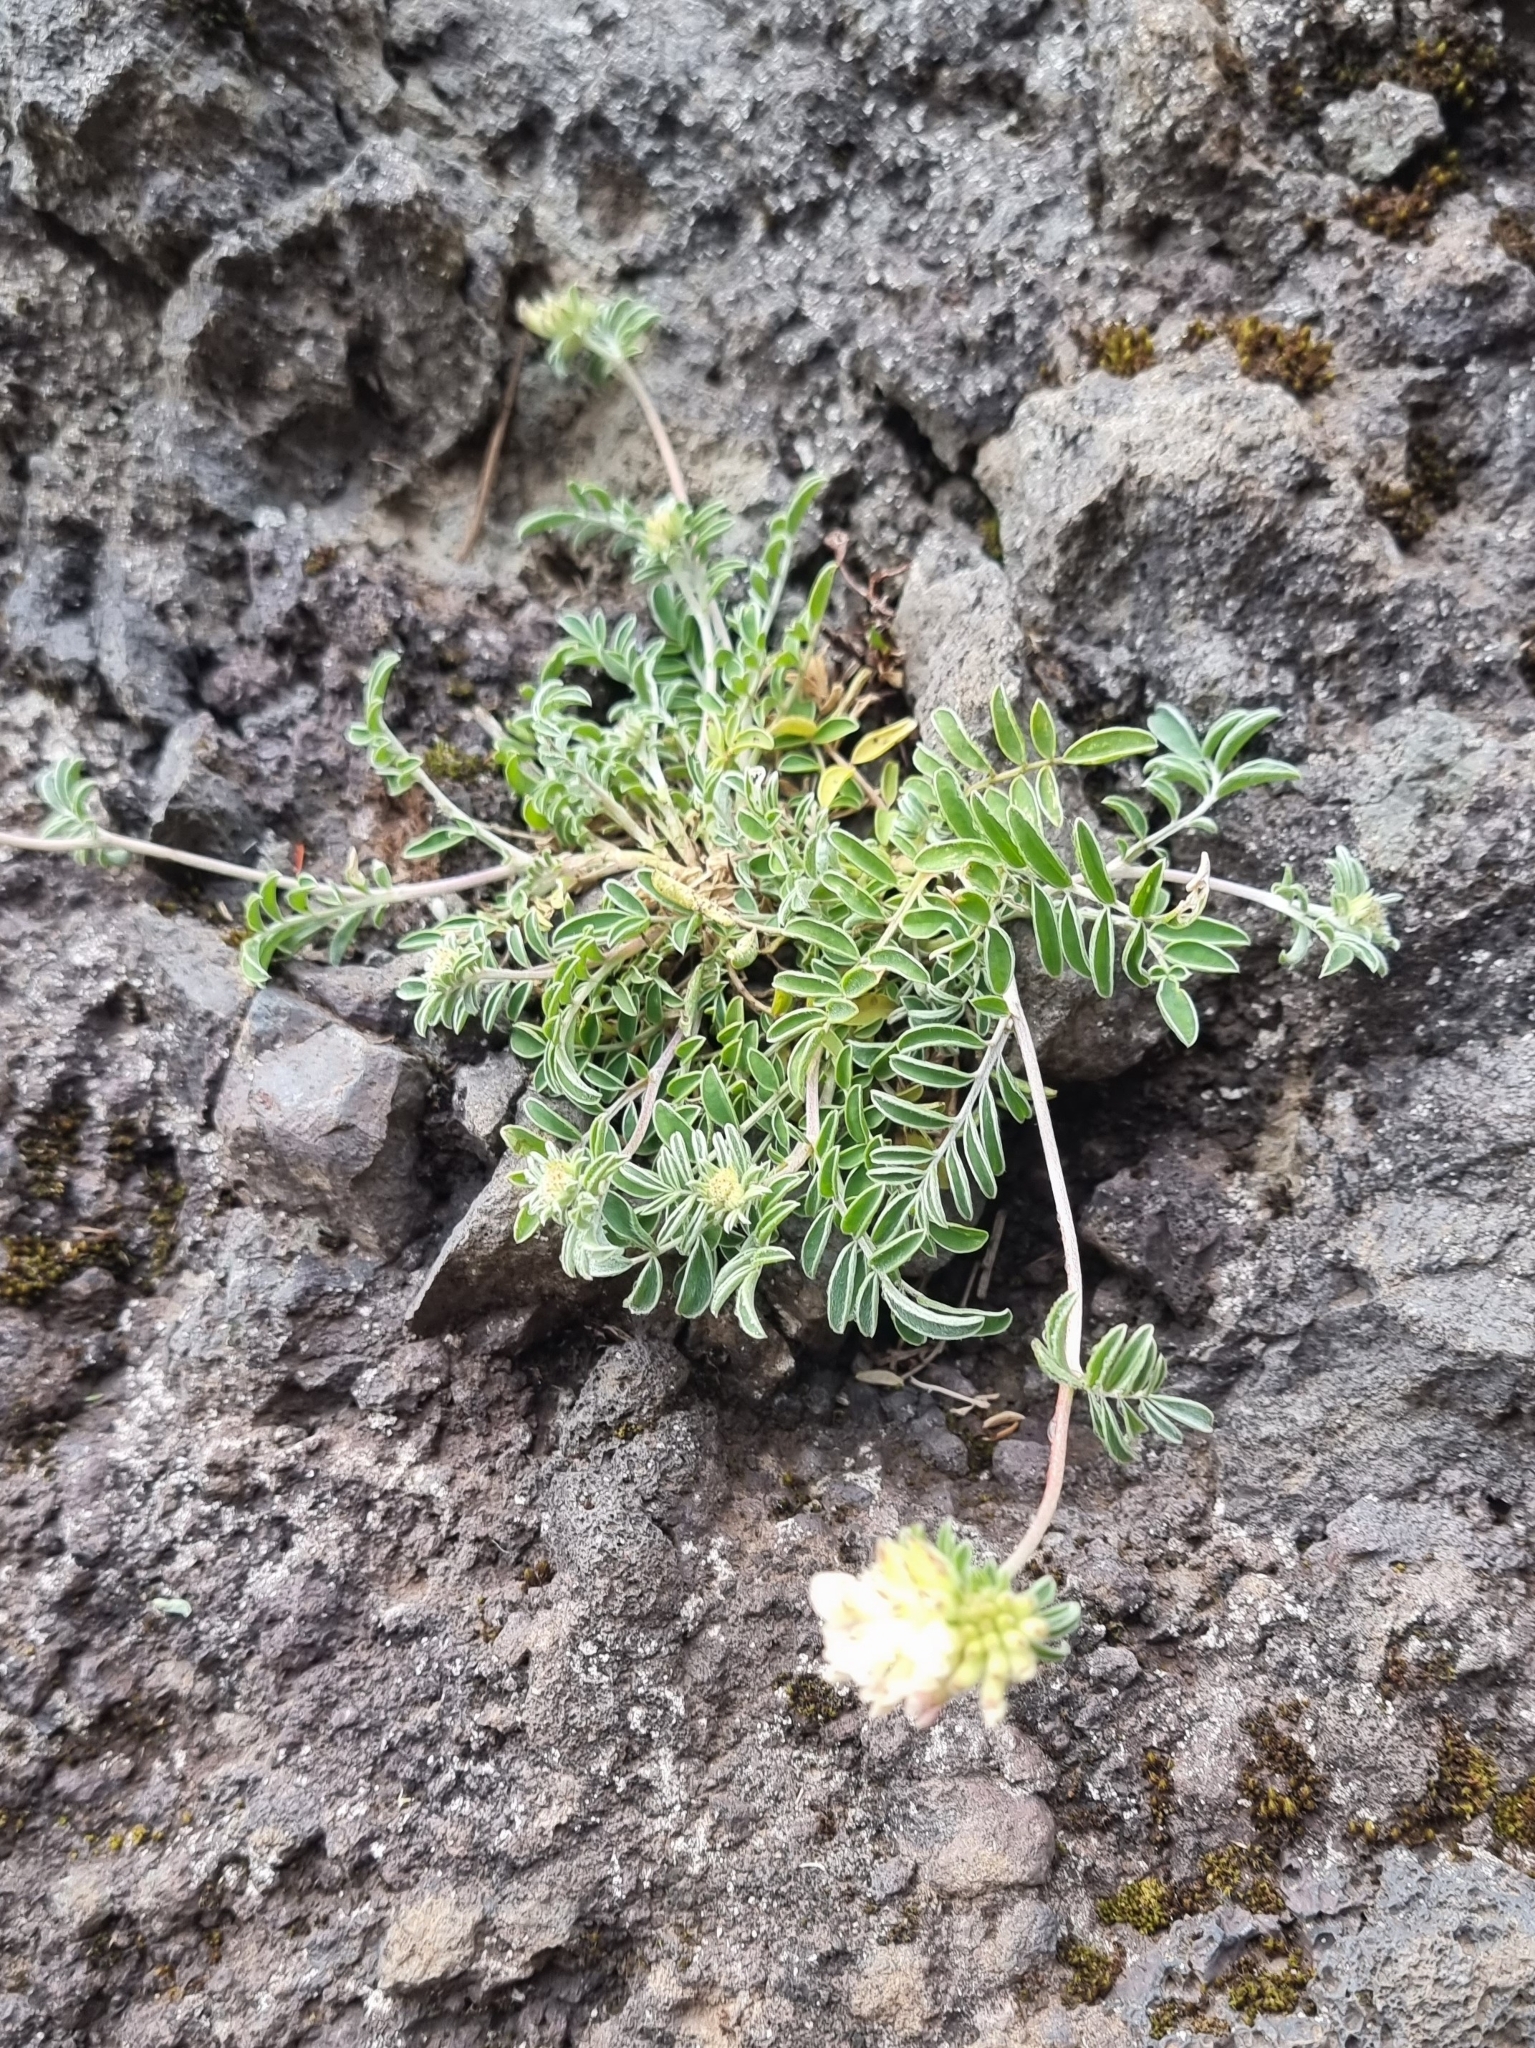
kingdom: Plantae
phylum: Tracheophyta
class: Magnoliopsida
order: Fabales
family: Fabaceae
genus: Anthyllis
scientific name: Anthyllis lemanniana
